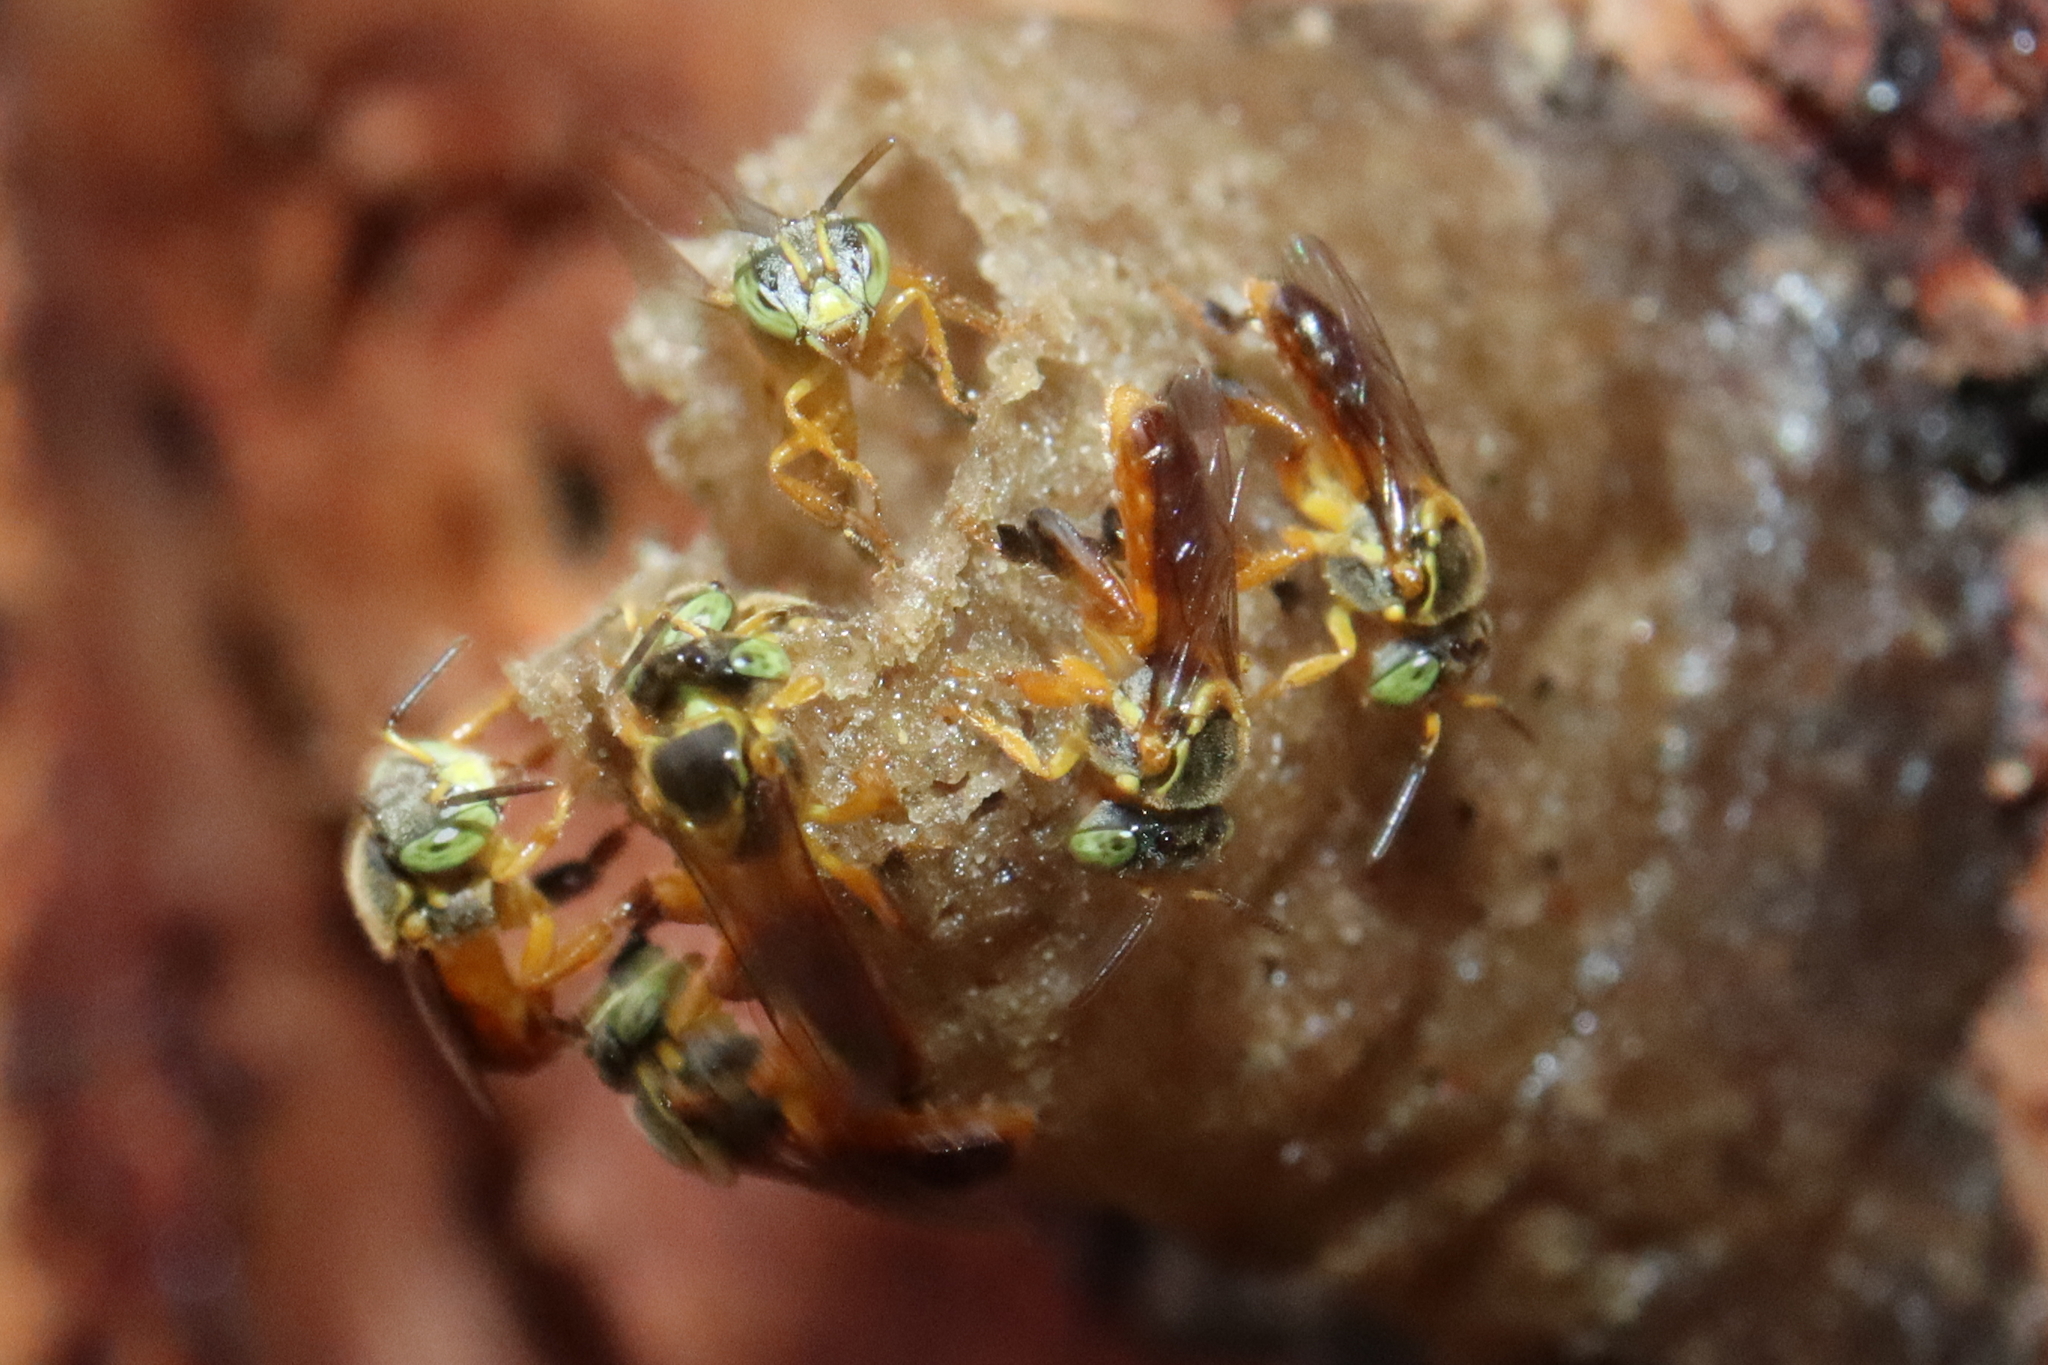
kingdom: Animalia
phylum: Arthropoda
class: Insecta
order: Hymenoptera
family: Apidae
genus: Tetragonisca
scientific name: Tetragonisca angustula
